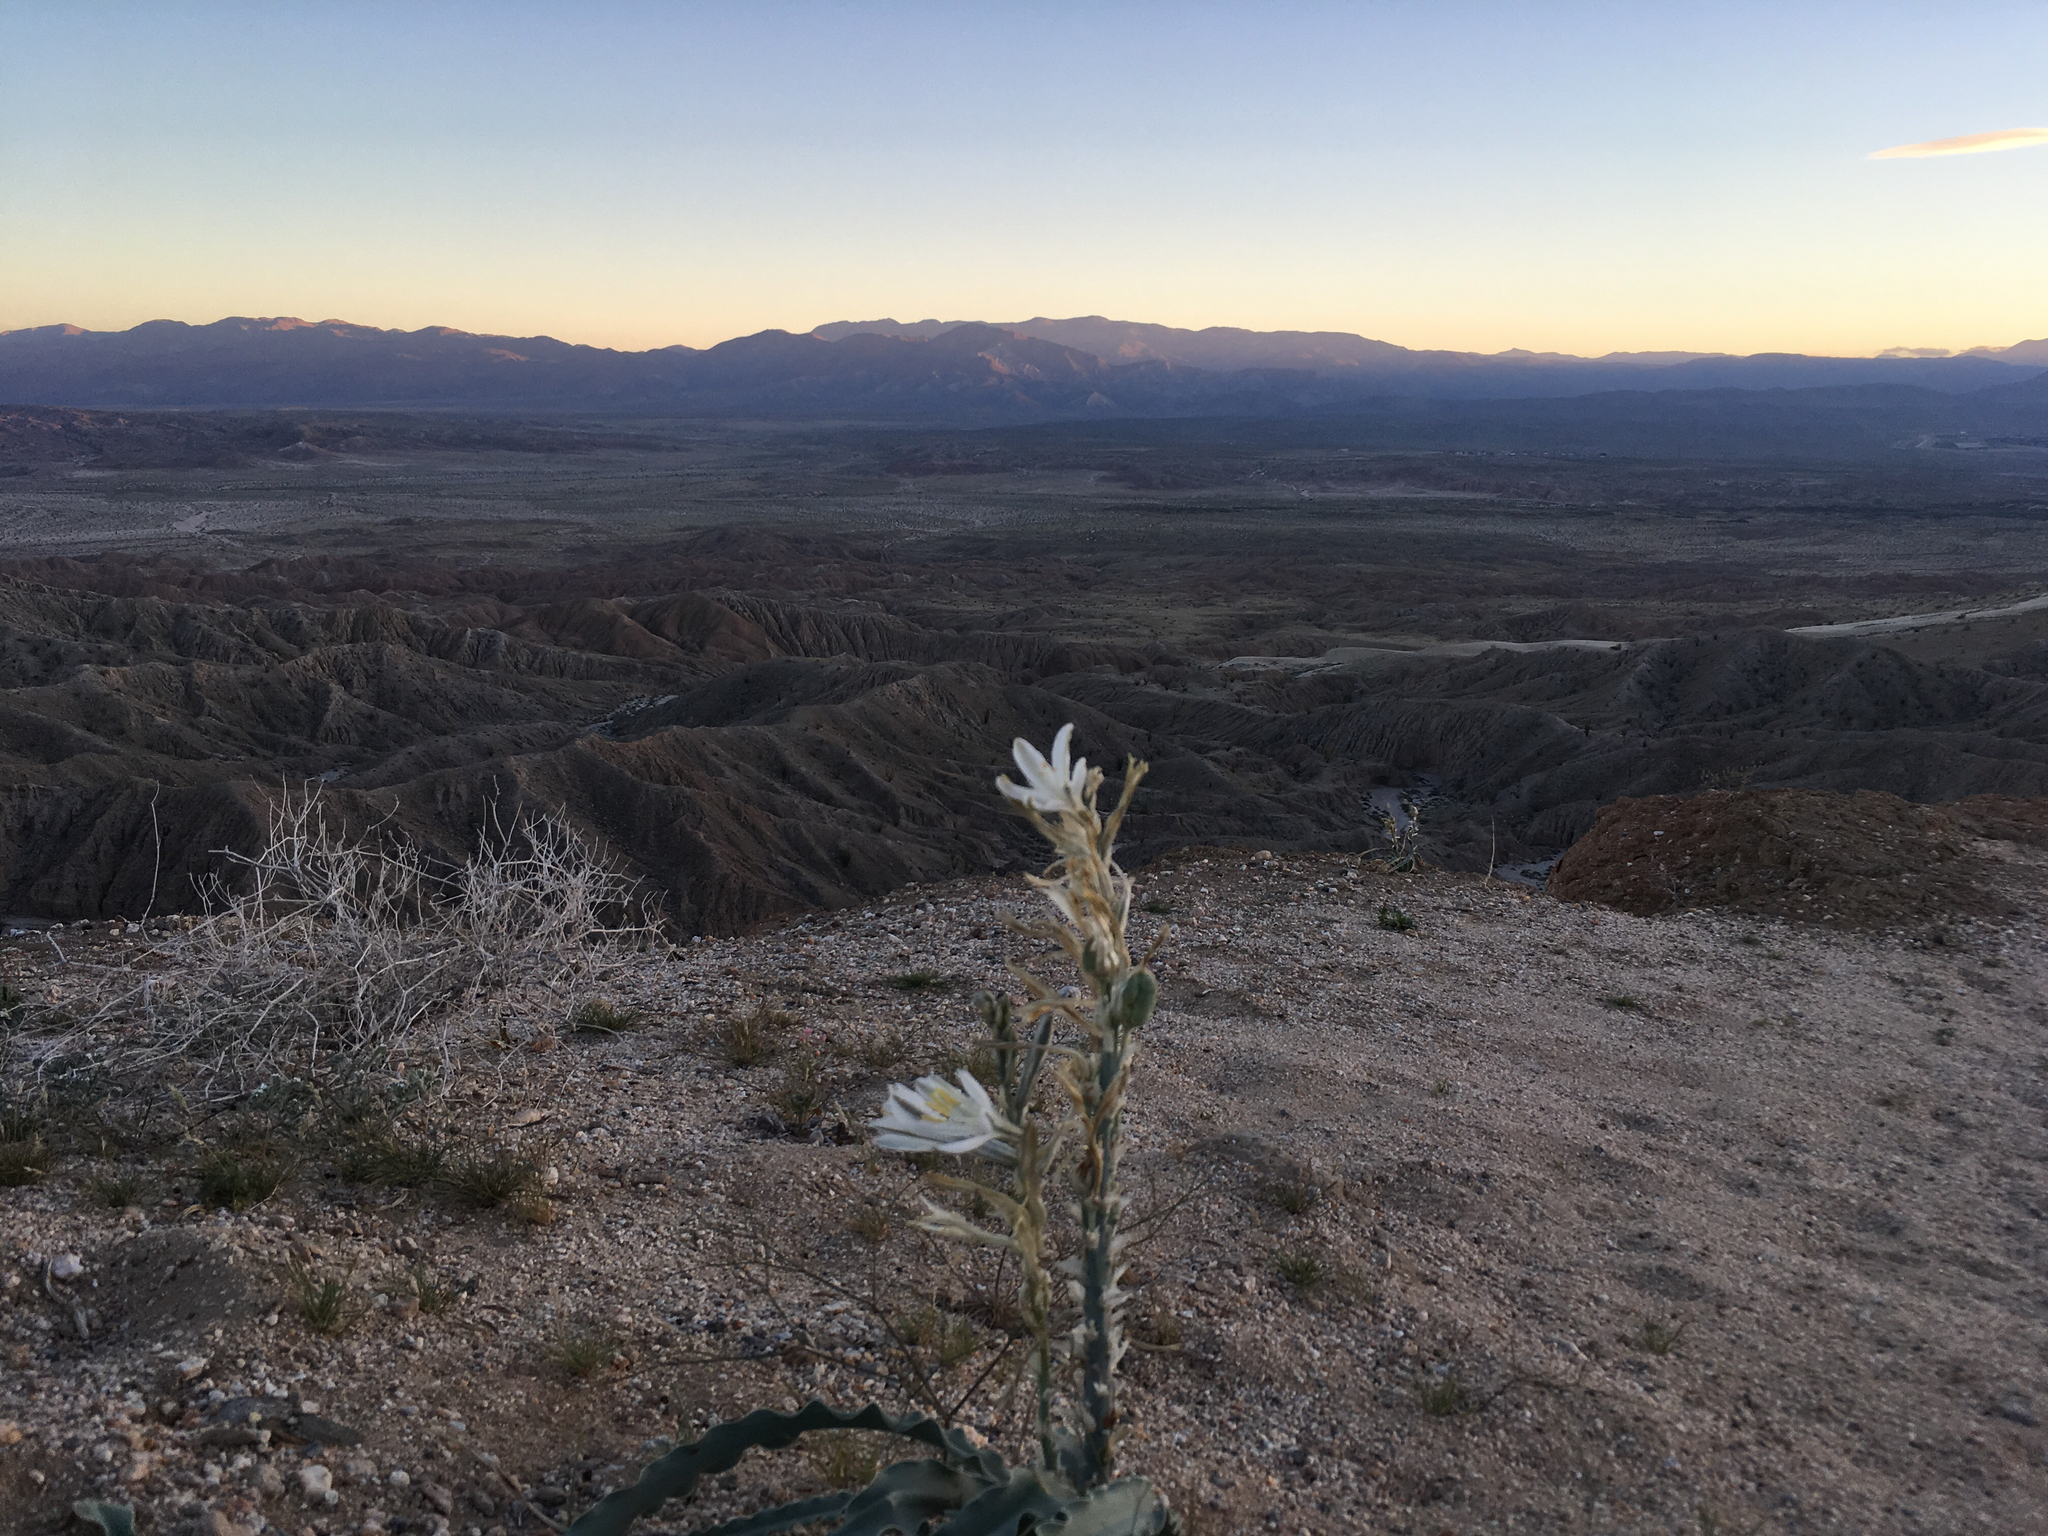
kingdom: Plantae
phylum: Tracheophyta
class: Liliopsida
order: Asparagales
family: Asparagaceae
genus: Hesperocallis
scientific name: Hesperocallis undulata
